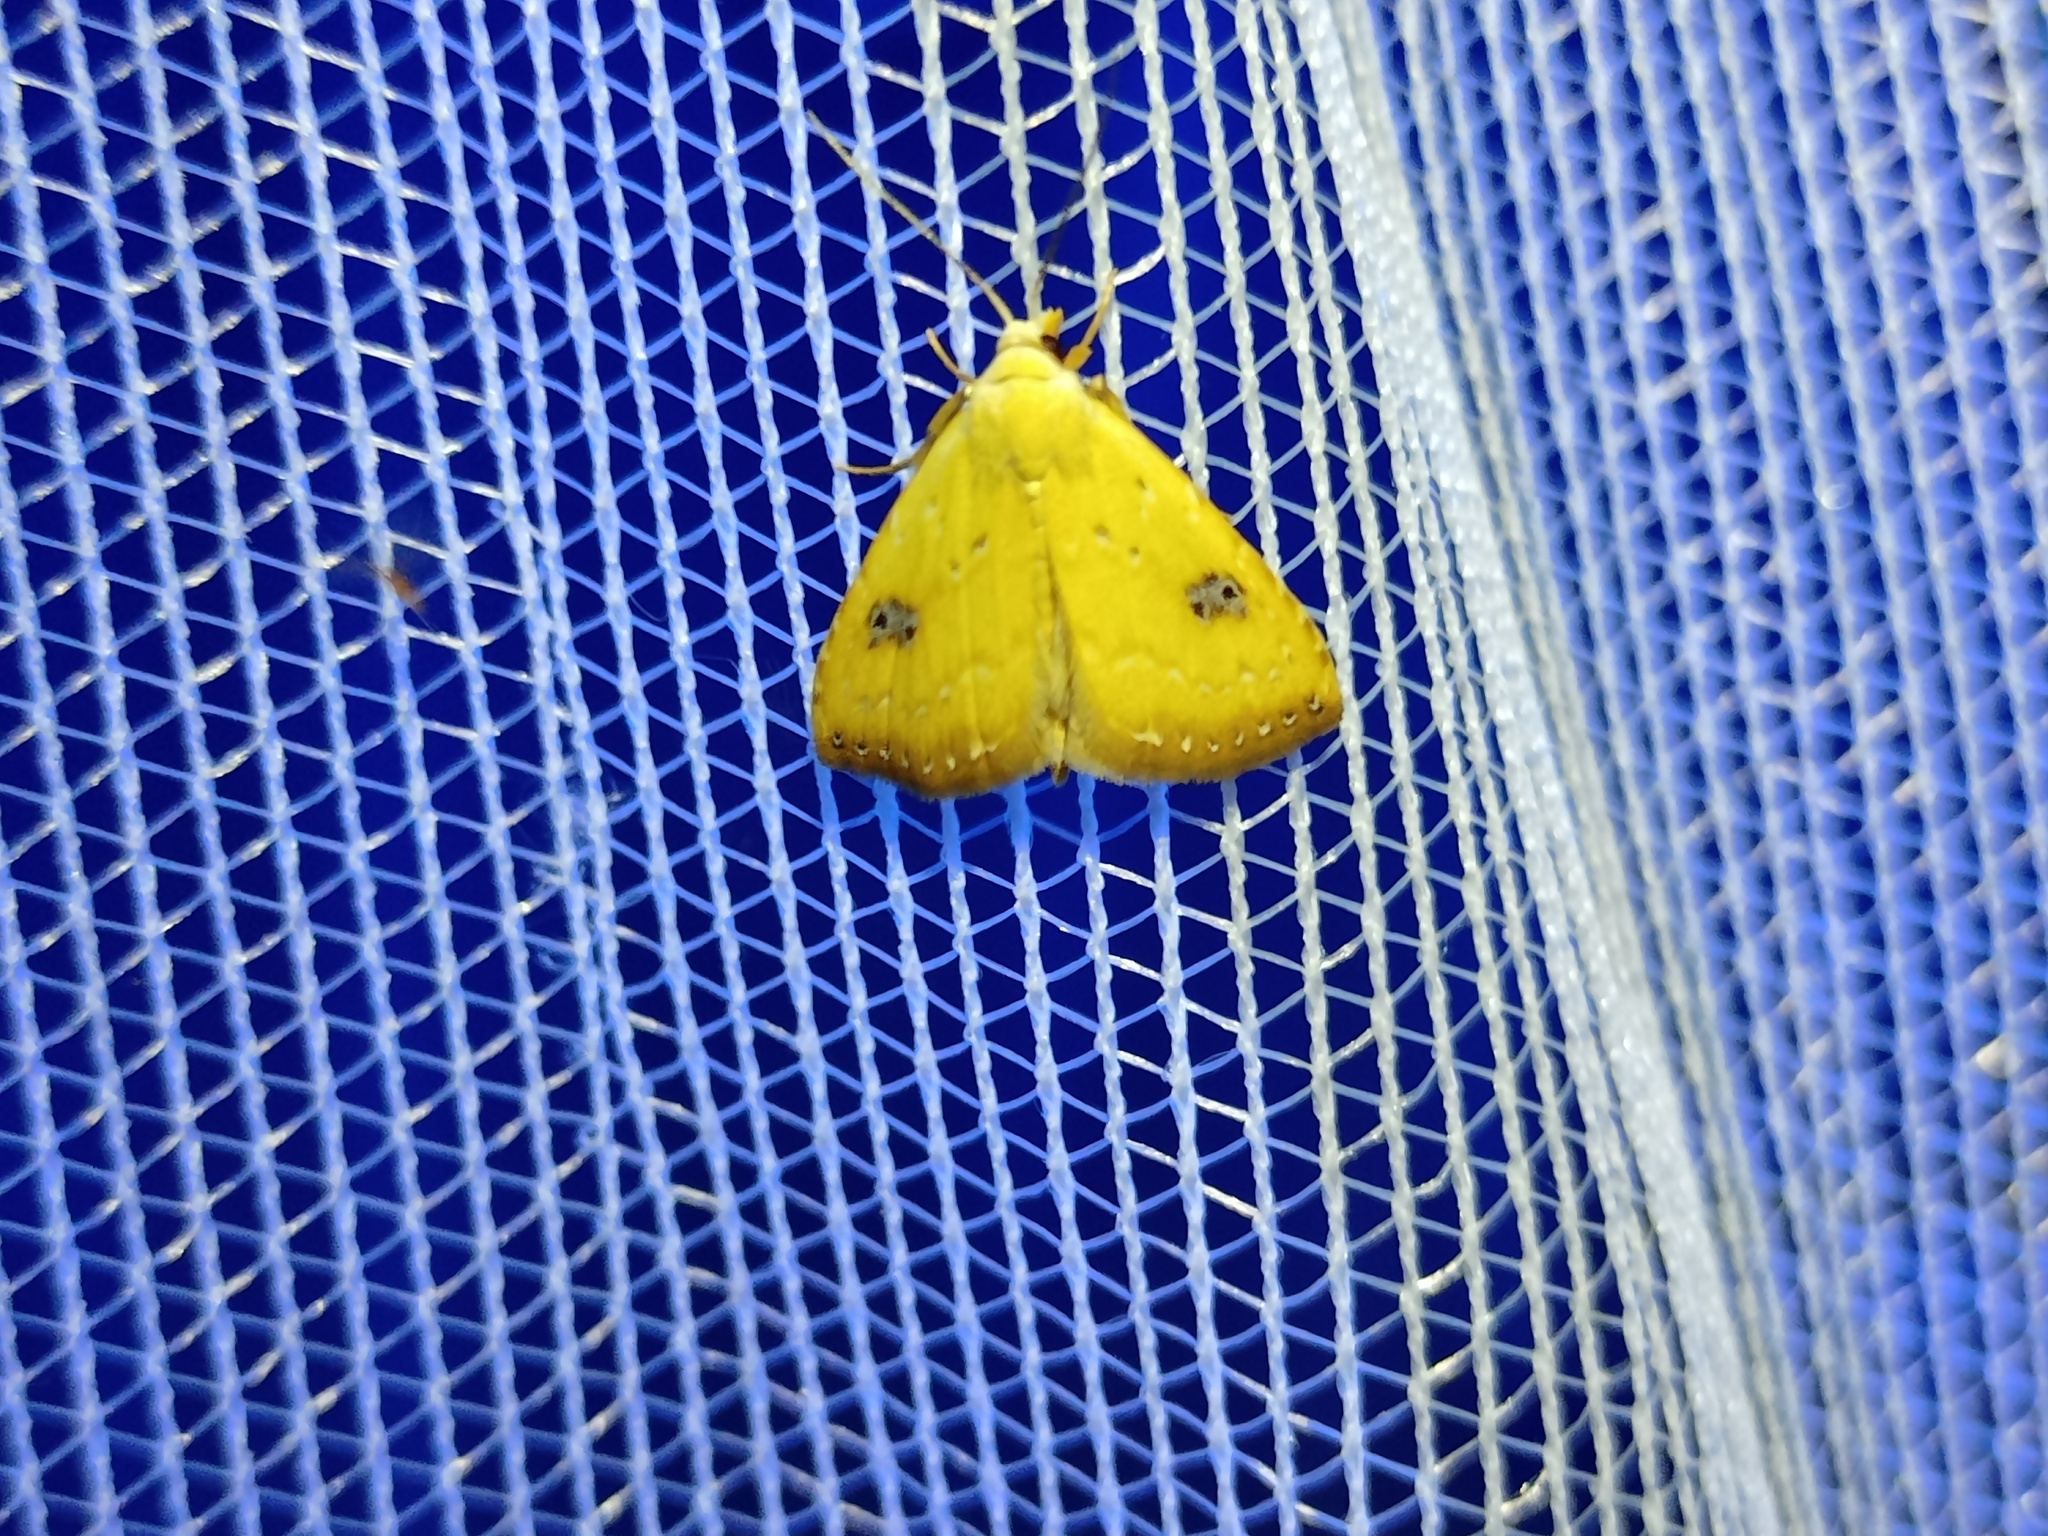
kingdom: Animalia
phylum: Arthropoda
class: Insecta
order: Lepidoptera
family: Erebidae
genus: Rivula
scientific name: Rivula sericealis
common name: Straw dot
